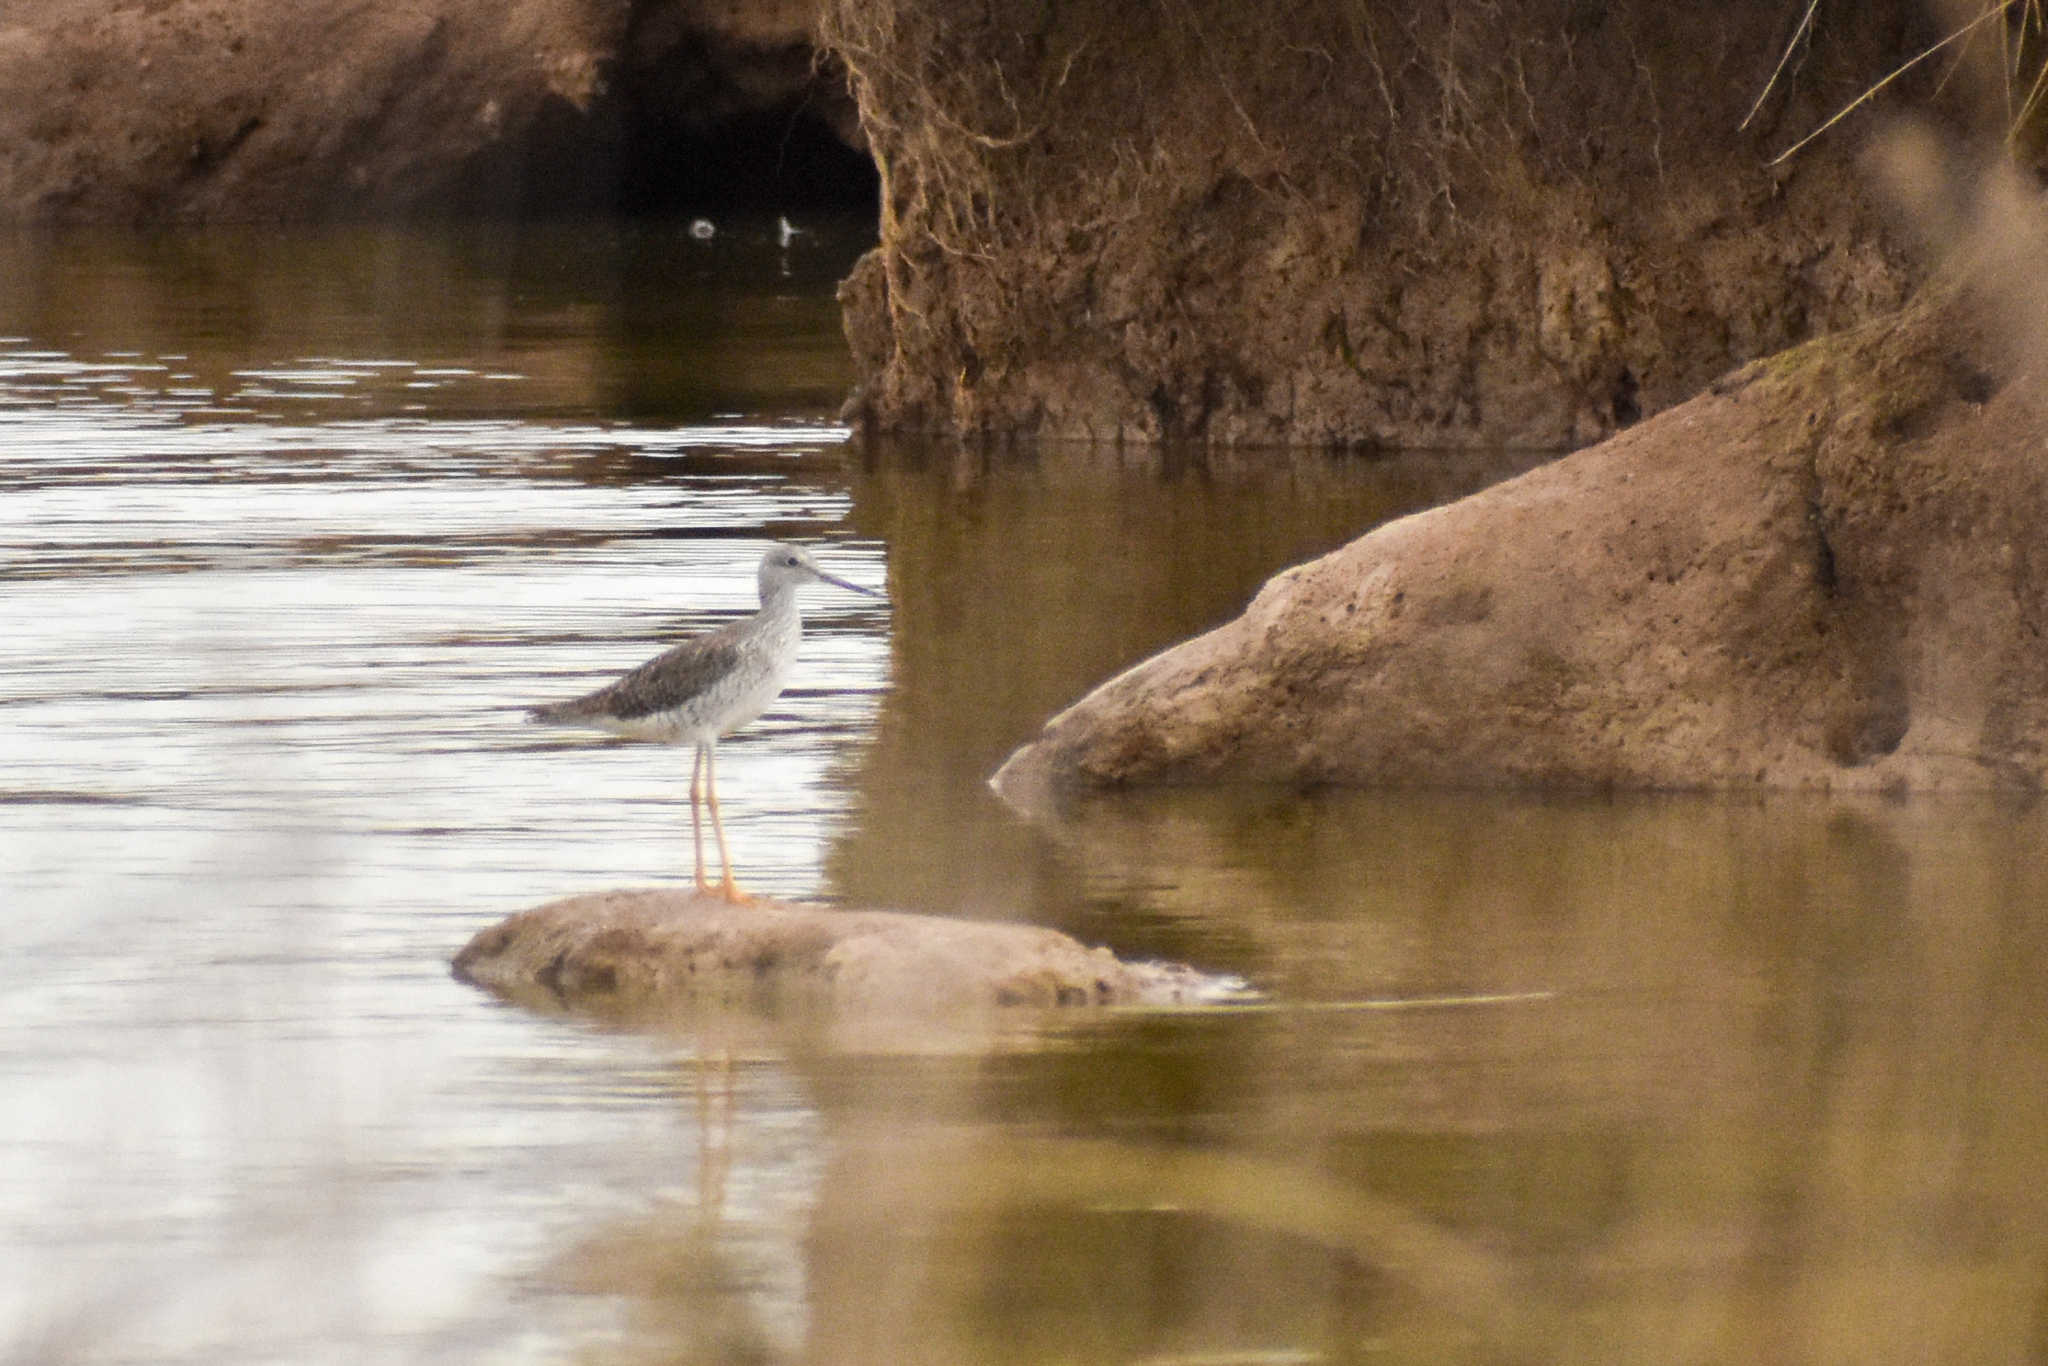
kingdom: Animalia
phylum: Chordata
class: Aves
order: Charadriiformes
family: Scolopacidae
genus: Tringa
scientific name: Tringa flavipes
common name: Lesser yellowlegs
